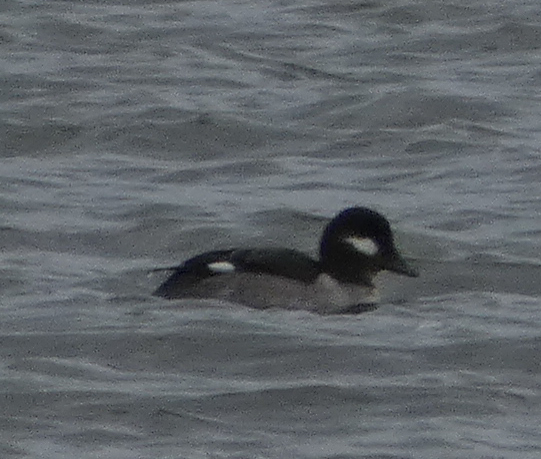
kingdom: Animalia
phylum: Chordata
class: Aves
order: Anseriformes
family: Anatidae
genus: Bucephala
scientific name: Bucephala albeola
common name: Bufflehead
